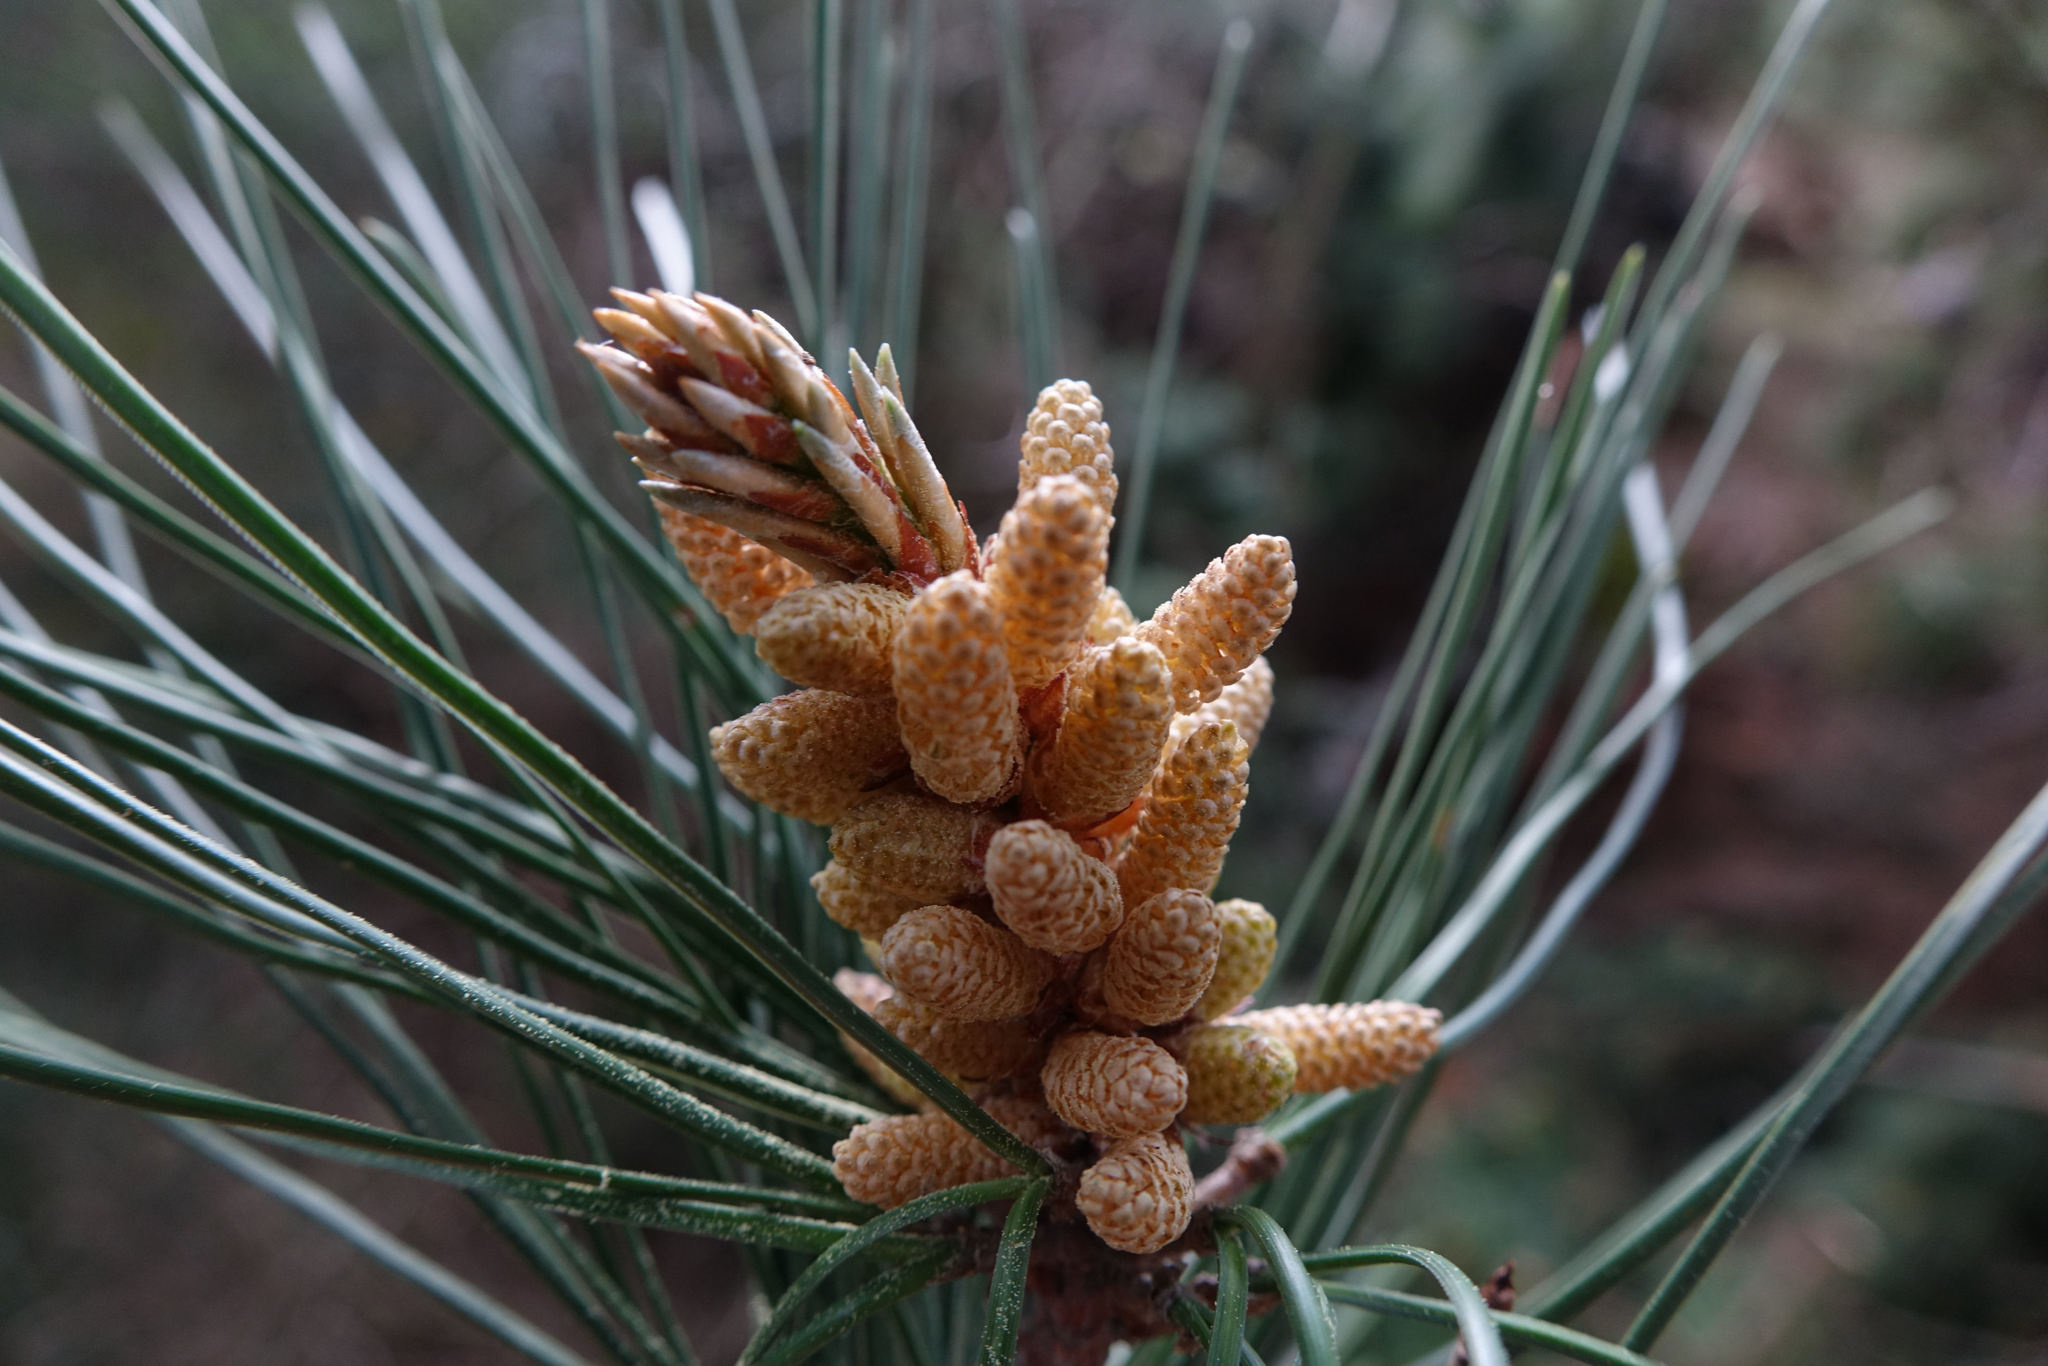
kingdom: Plantae
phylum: Tracheophyta
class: Pinopsida
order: Pinales
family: Pinaceae
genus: Pinus
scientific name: Pinus radiata
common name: Monterey pine
